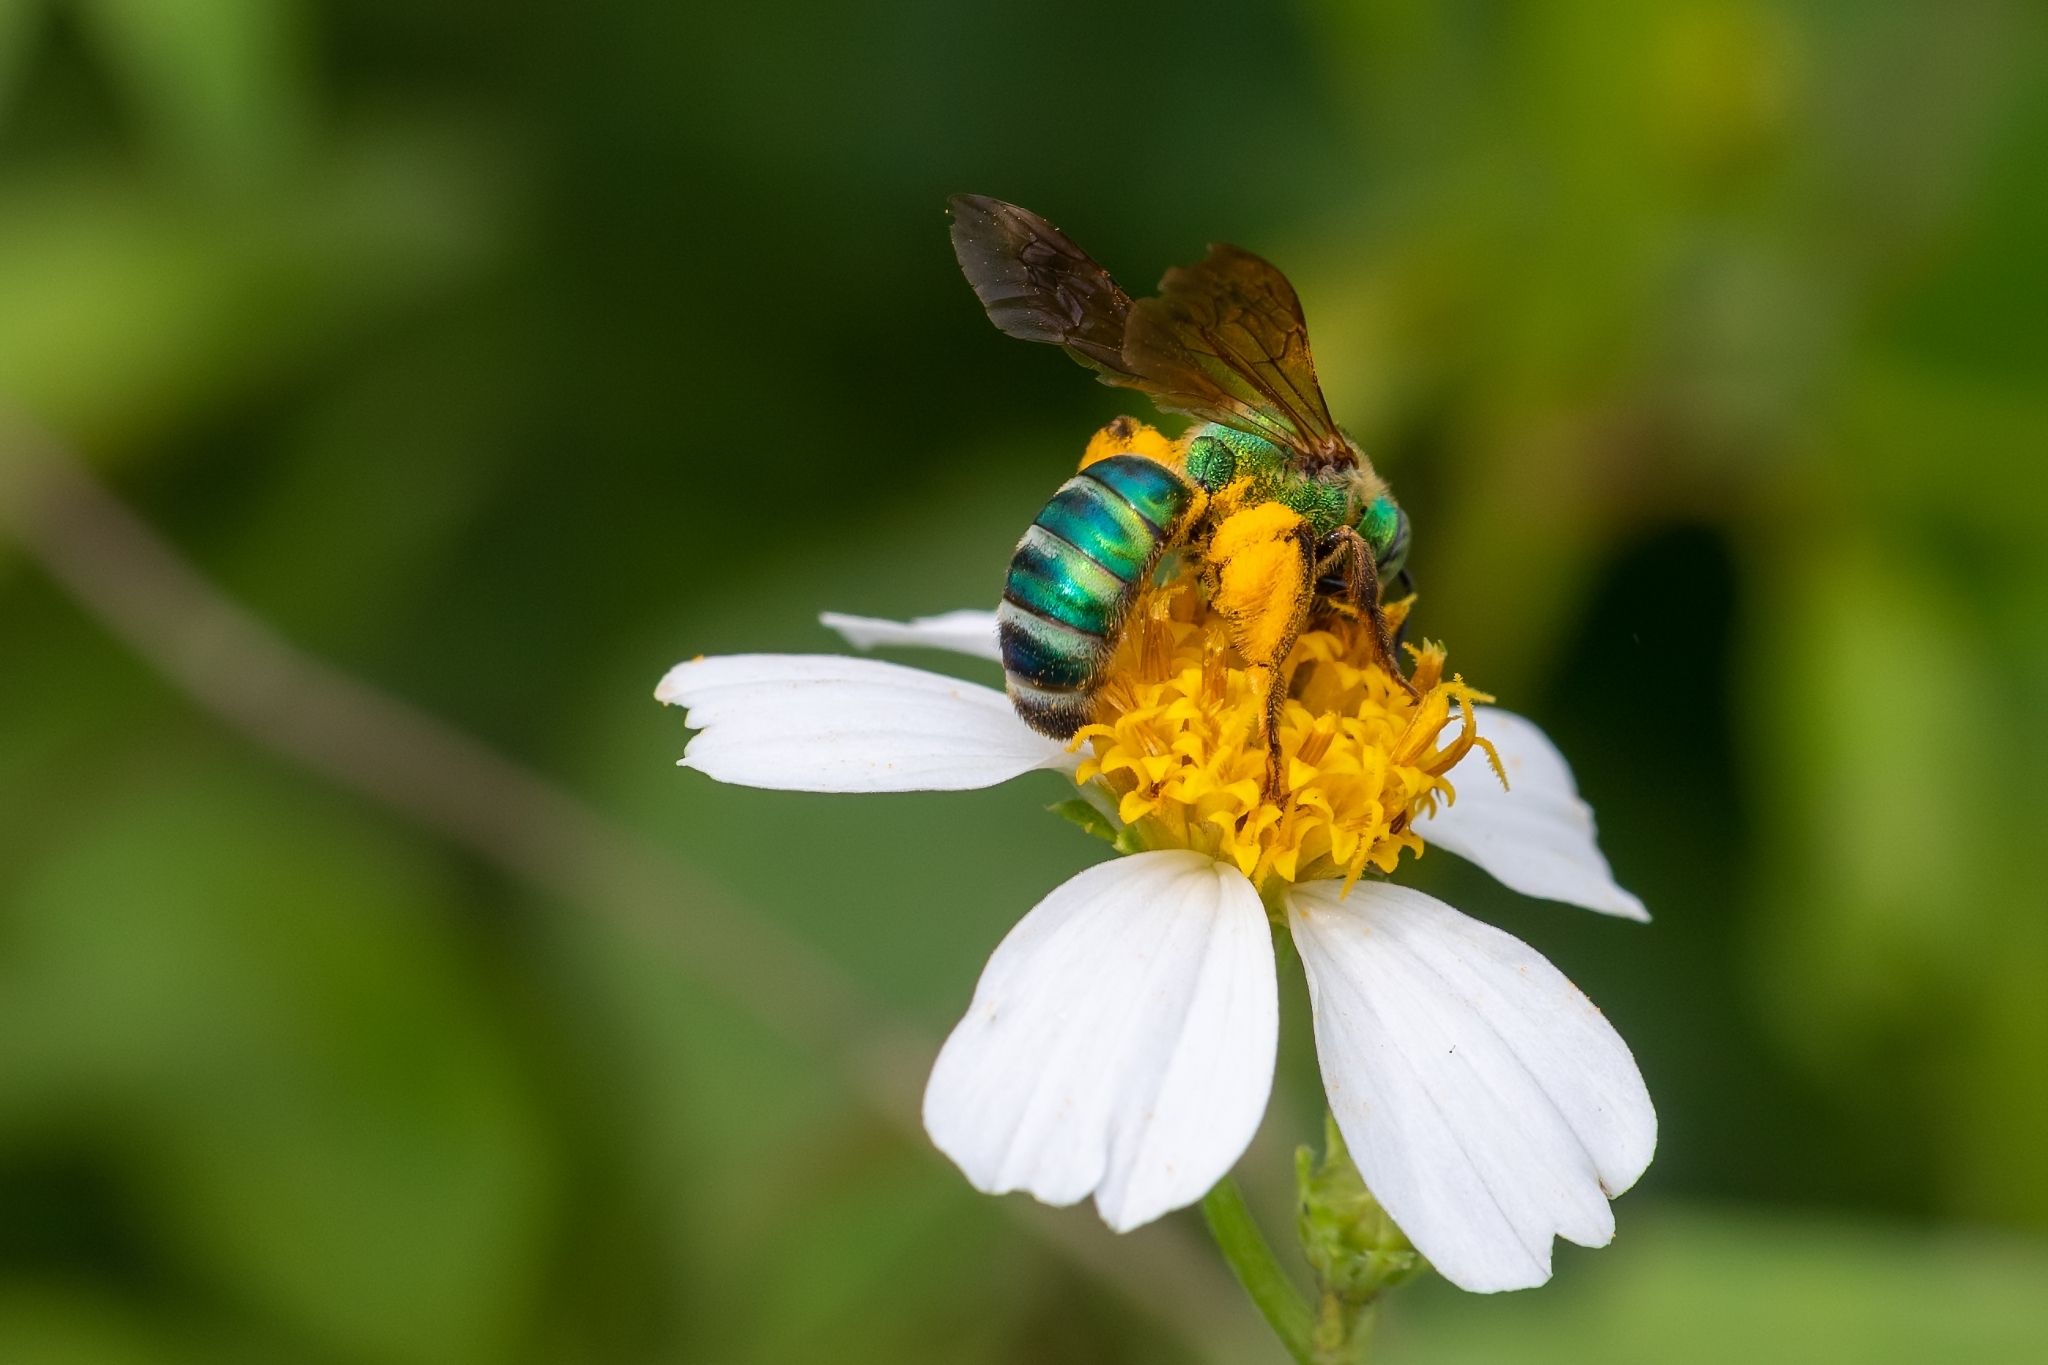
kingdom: Animalia
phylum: Arthropoda
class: Insecta
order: Hymenoptera
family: Halictidae
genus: Agapostemon
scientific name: Agapostemon splendens
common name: Brown-winged striped sweat bee
